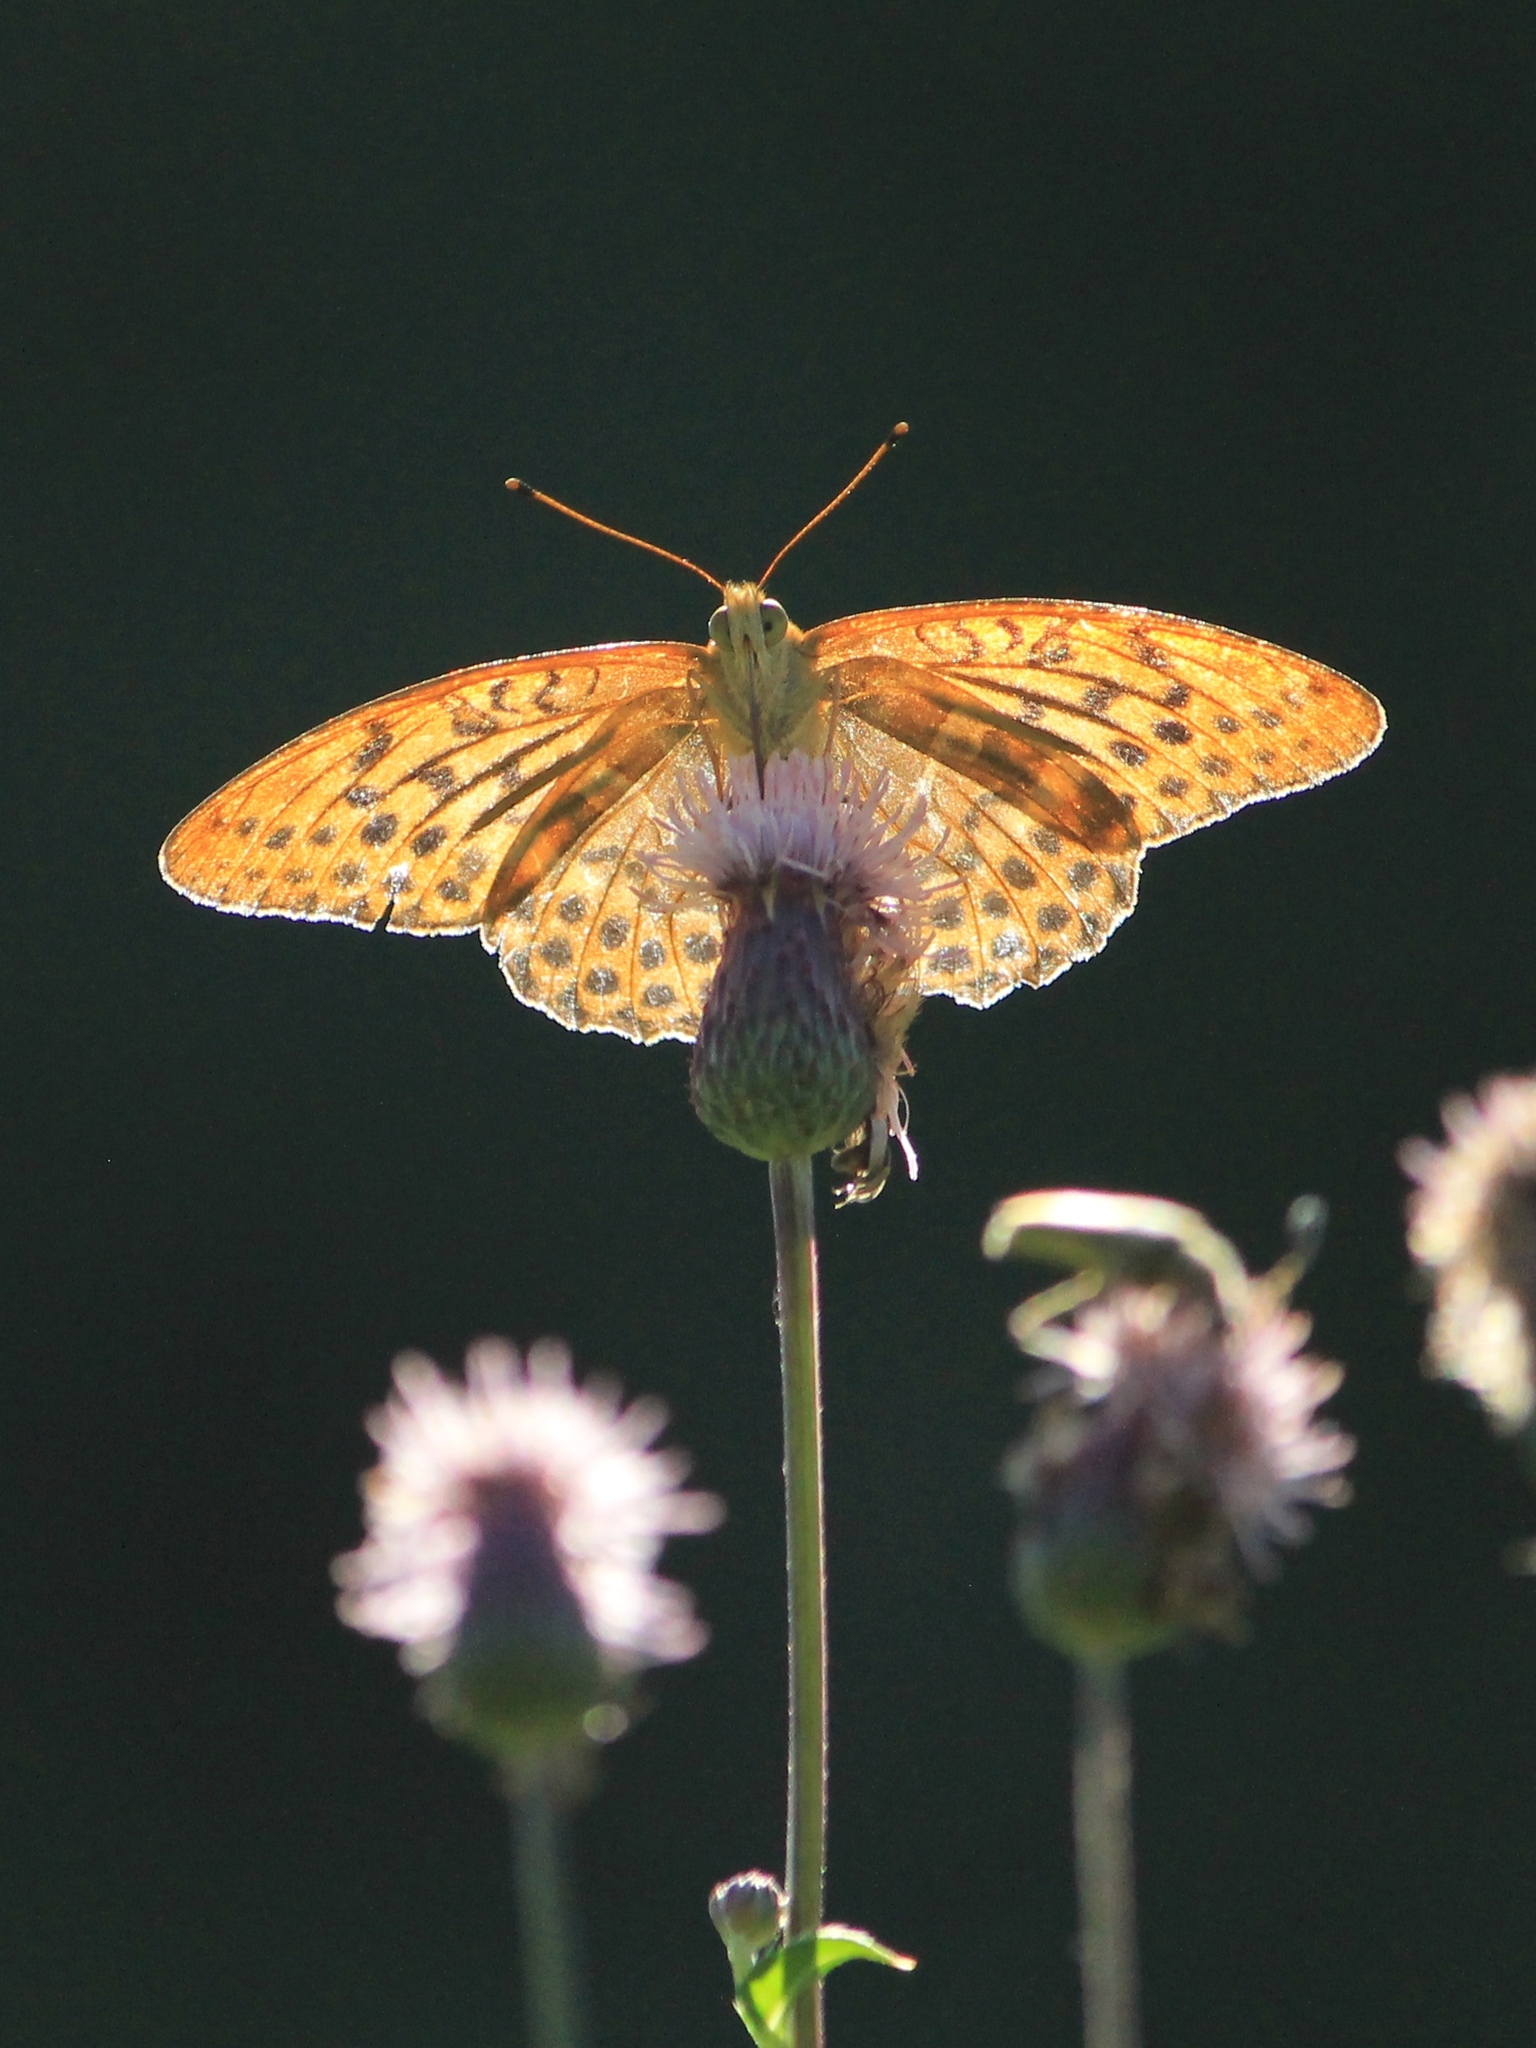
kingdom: Animalia
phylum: Arthropoda
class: Insecta
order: Lepidoptera
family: Nymphalidae
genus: Argynnis
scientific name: Argynnis paphia
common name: Silver-washed fritillary
